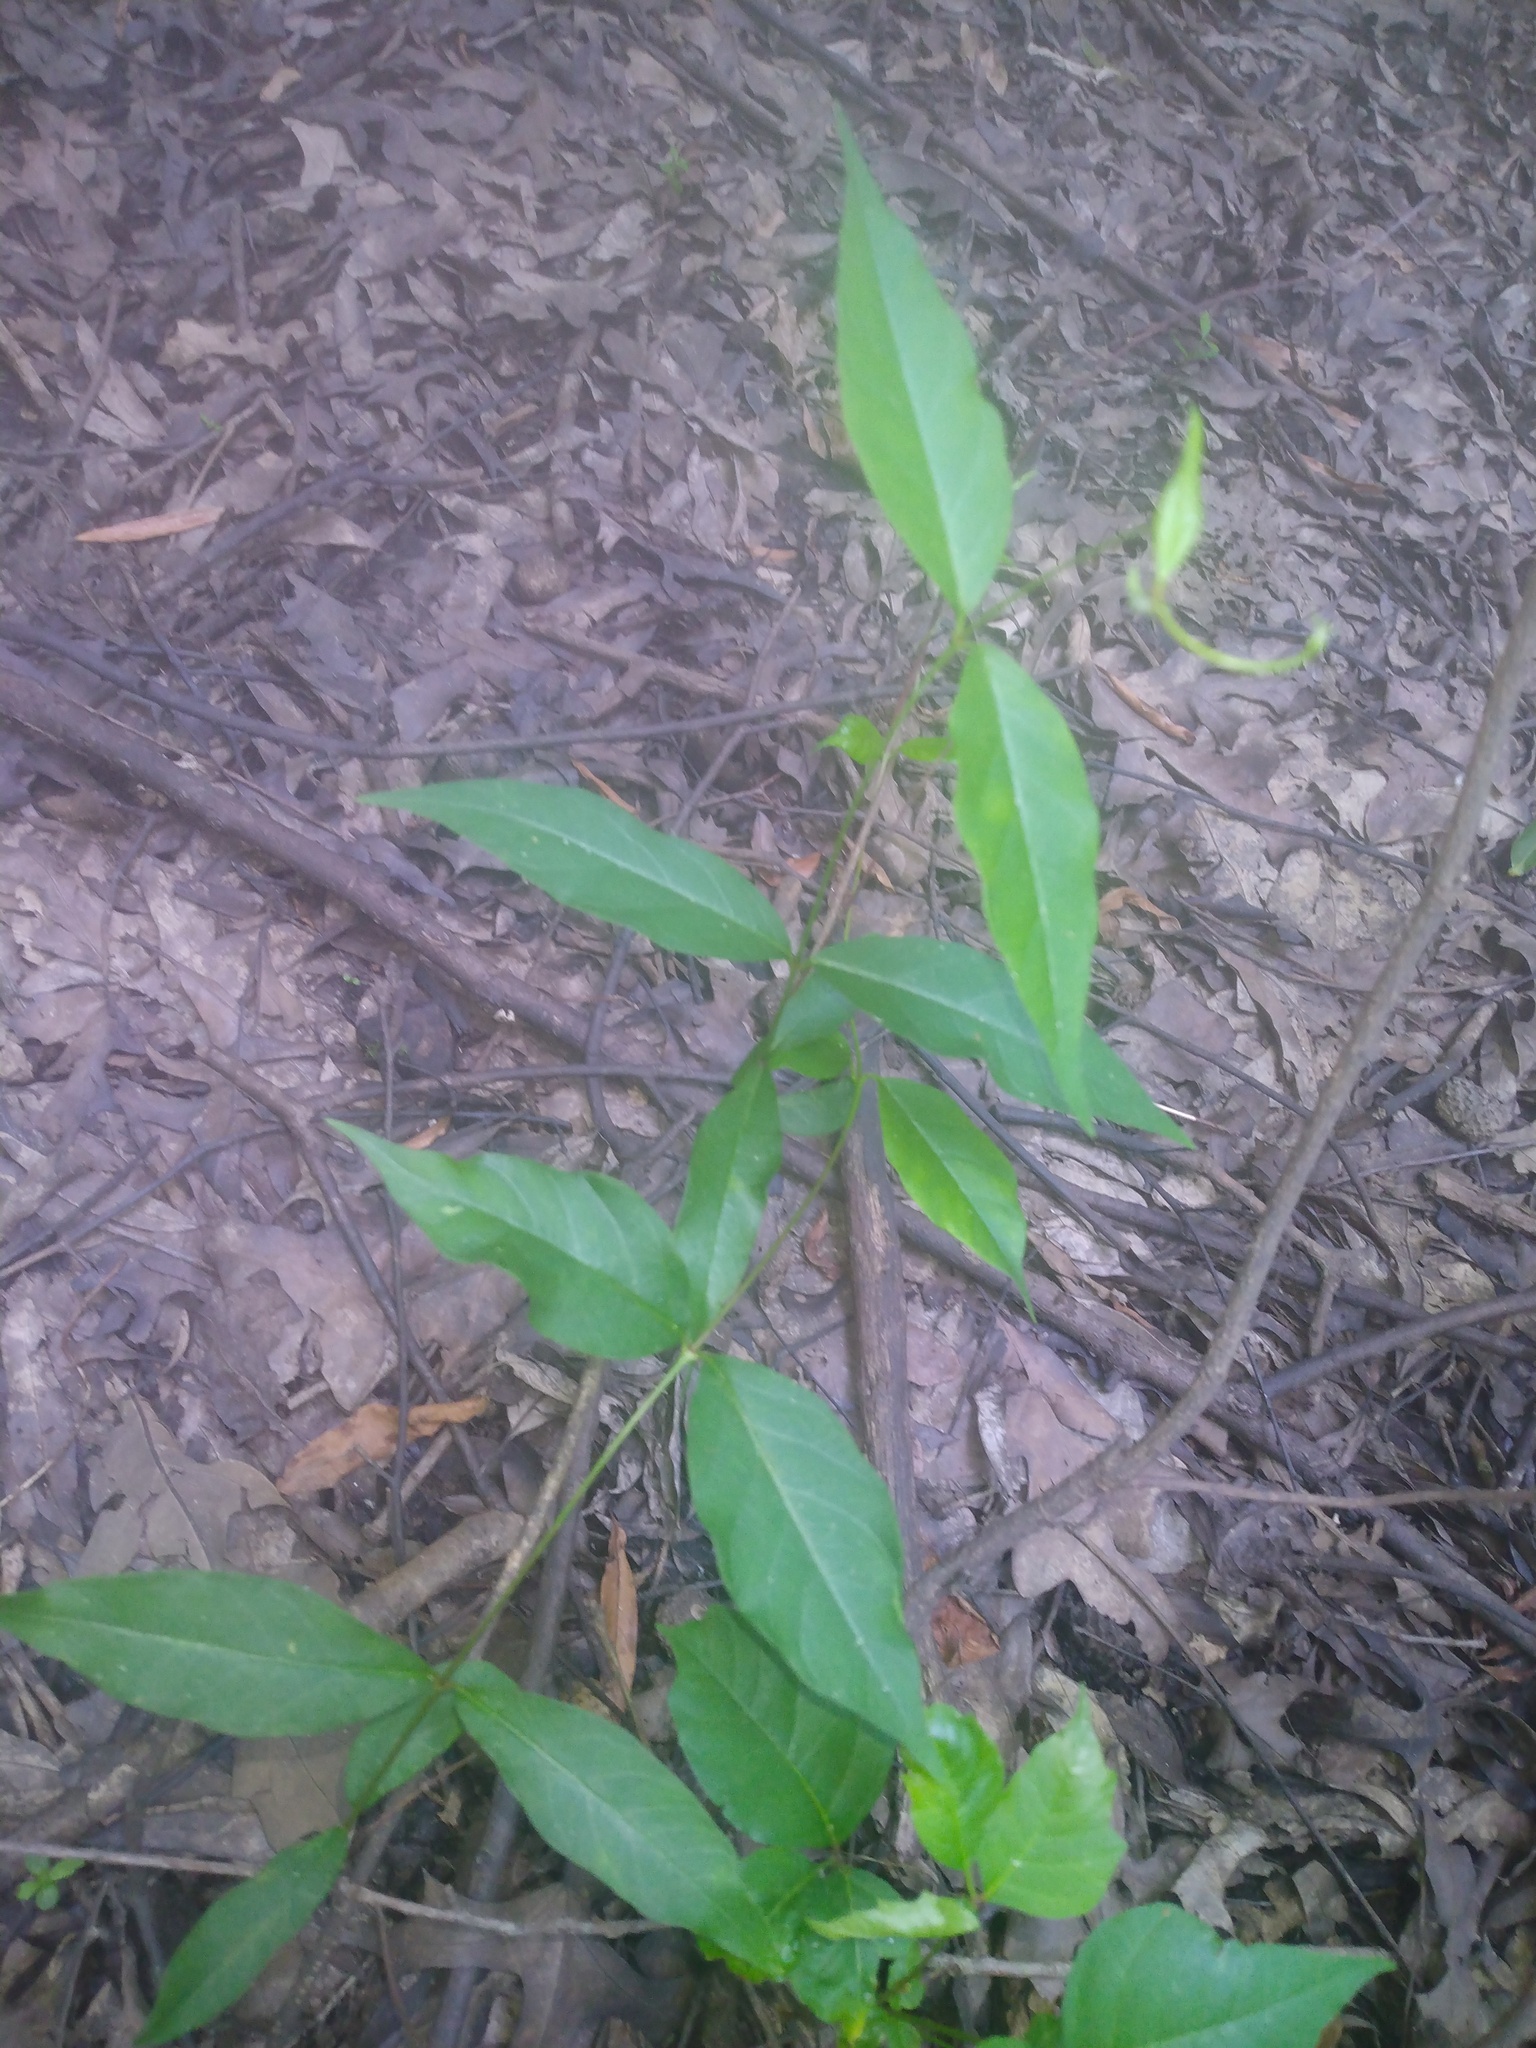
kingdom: Plantae
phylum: Tracheophyta
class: Magnoliopsida
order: Gentianales
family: Apocynaceae
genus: Thyrsanthella
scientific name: Thyrsanthella difformis
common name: Climbing dogbane
